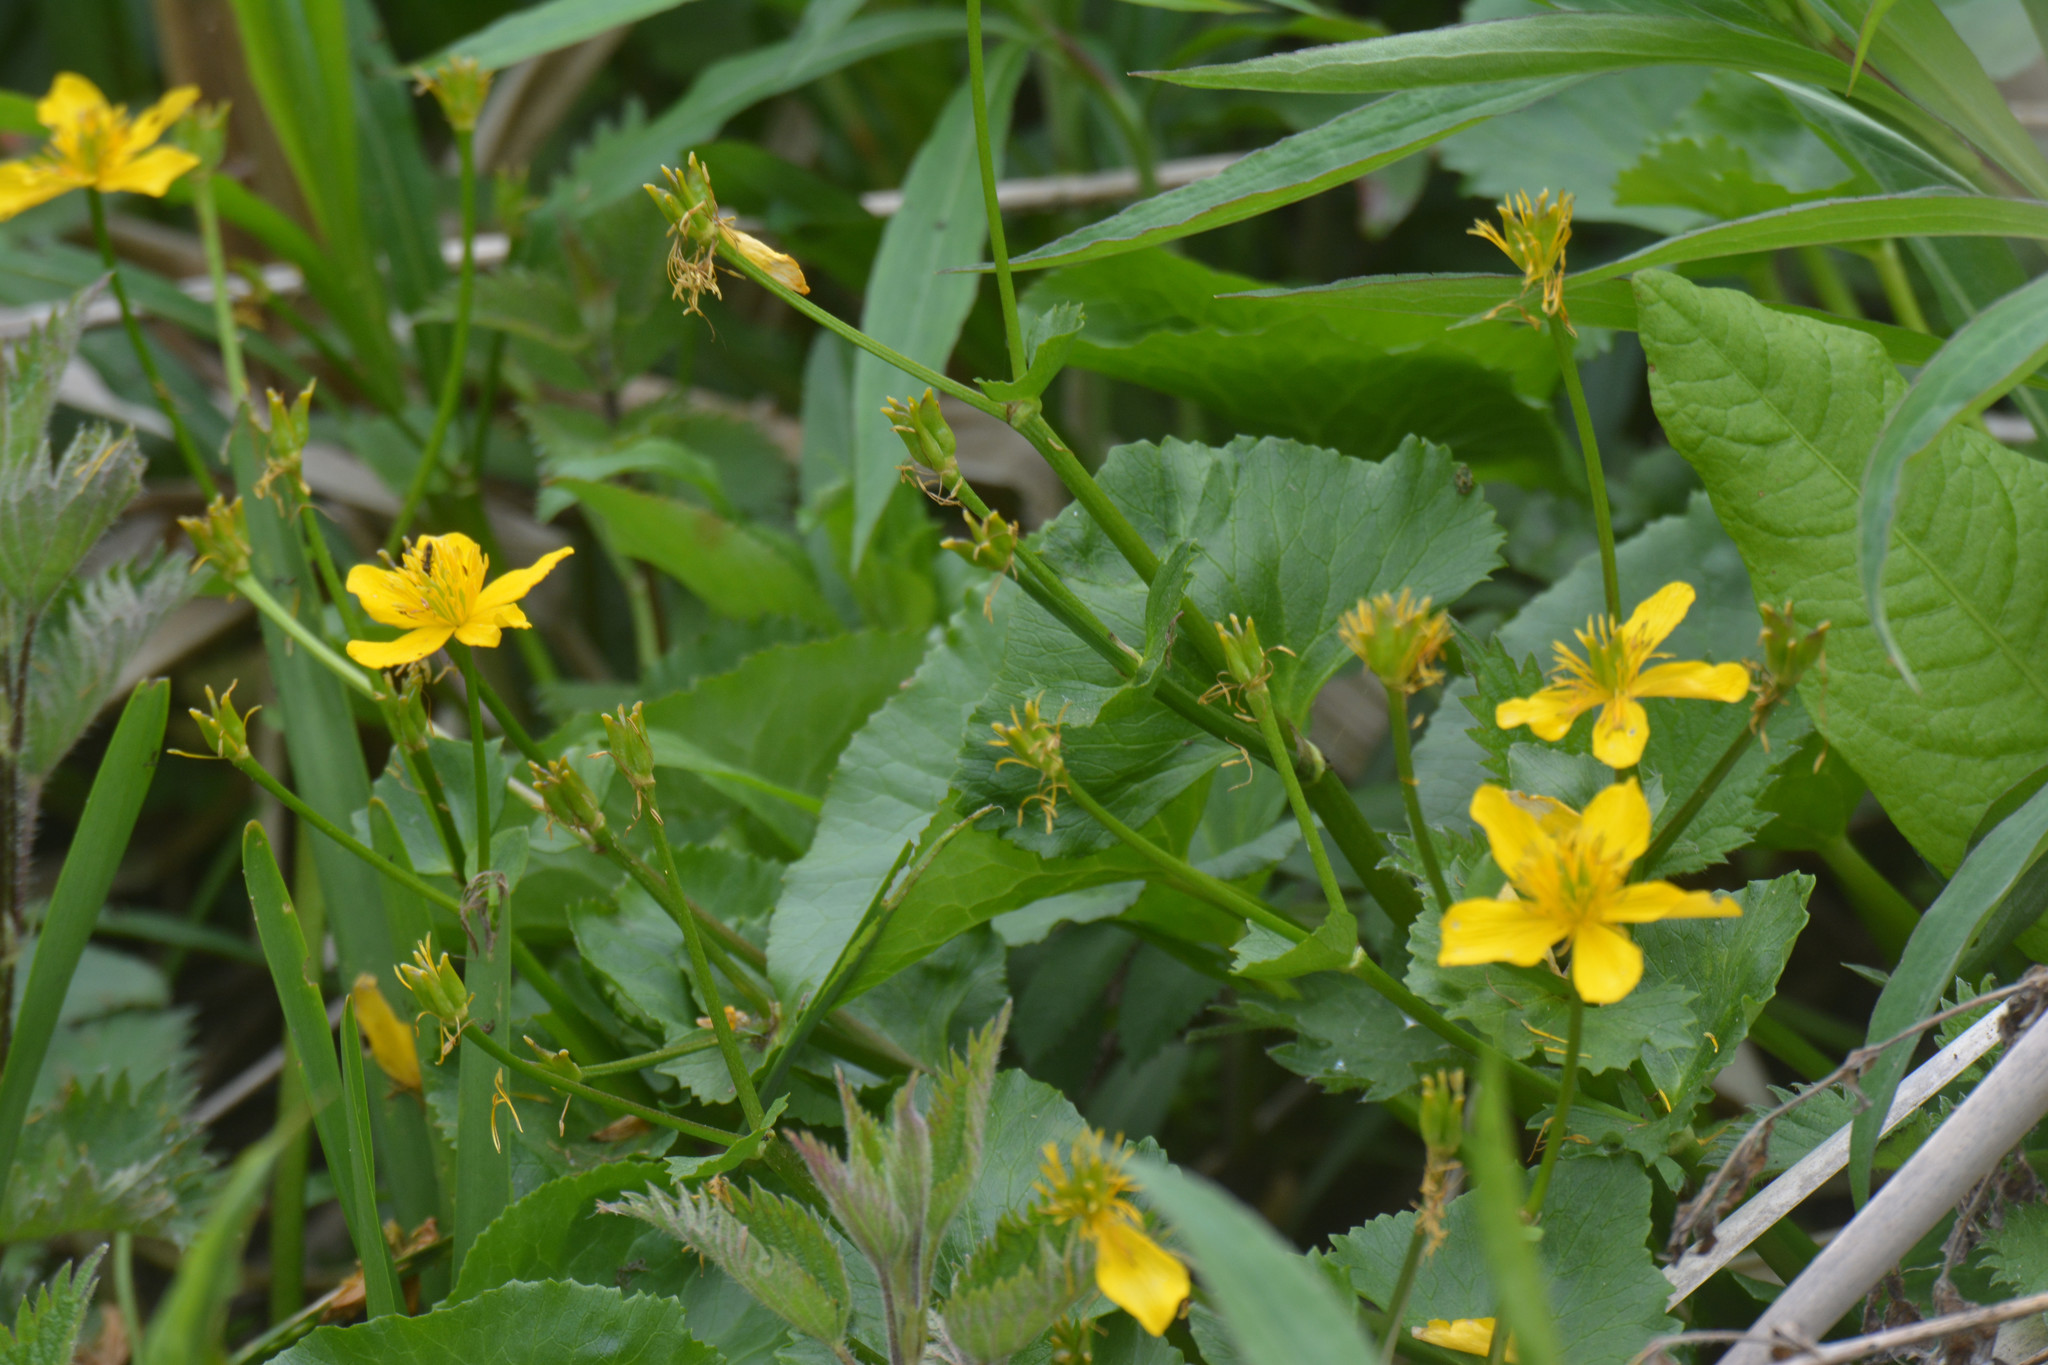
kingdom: Plantae
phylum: Tracheophyta
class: Magnoliopsida
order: Ranunculales
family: Ranunculaceae
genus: Caltha
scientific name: Caltha palustris
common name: Marsh marigold
